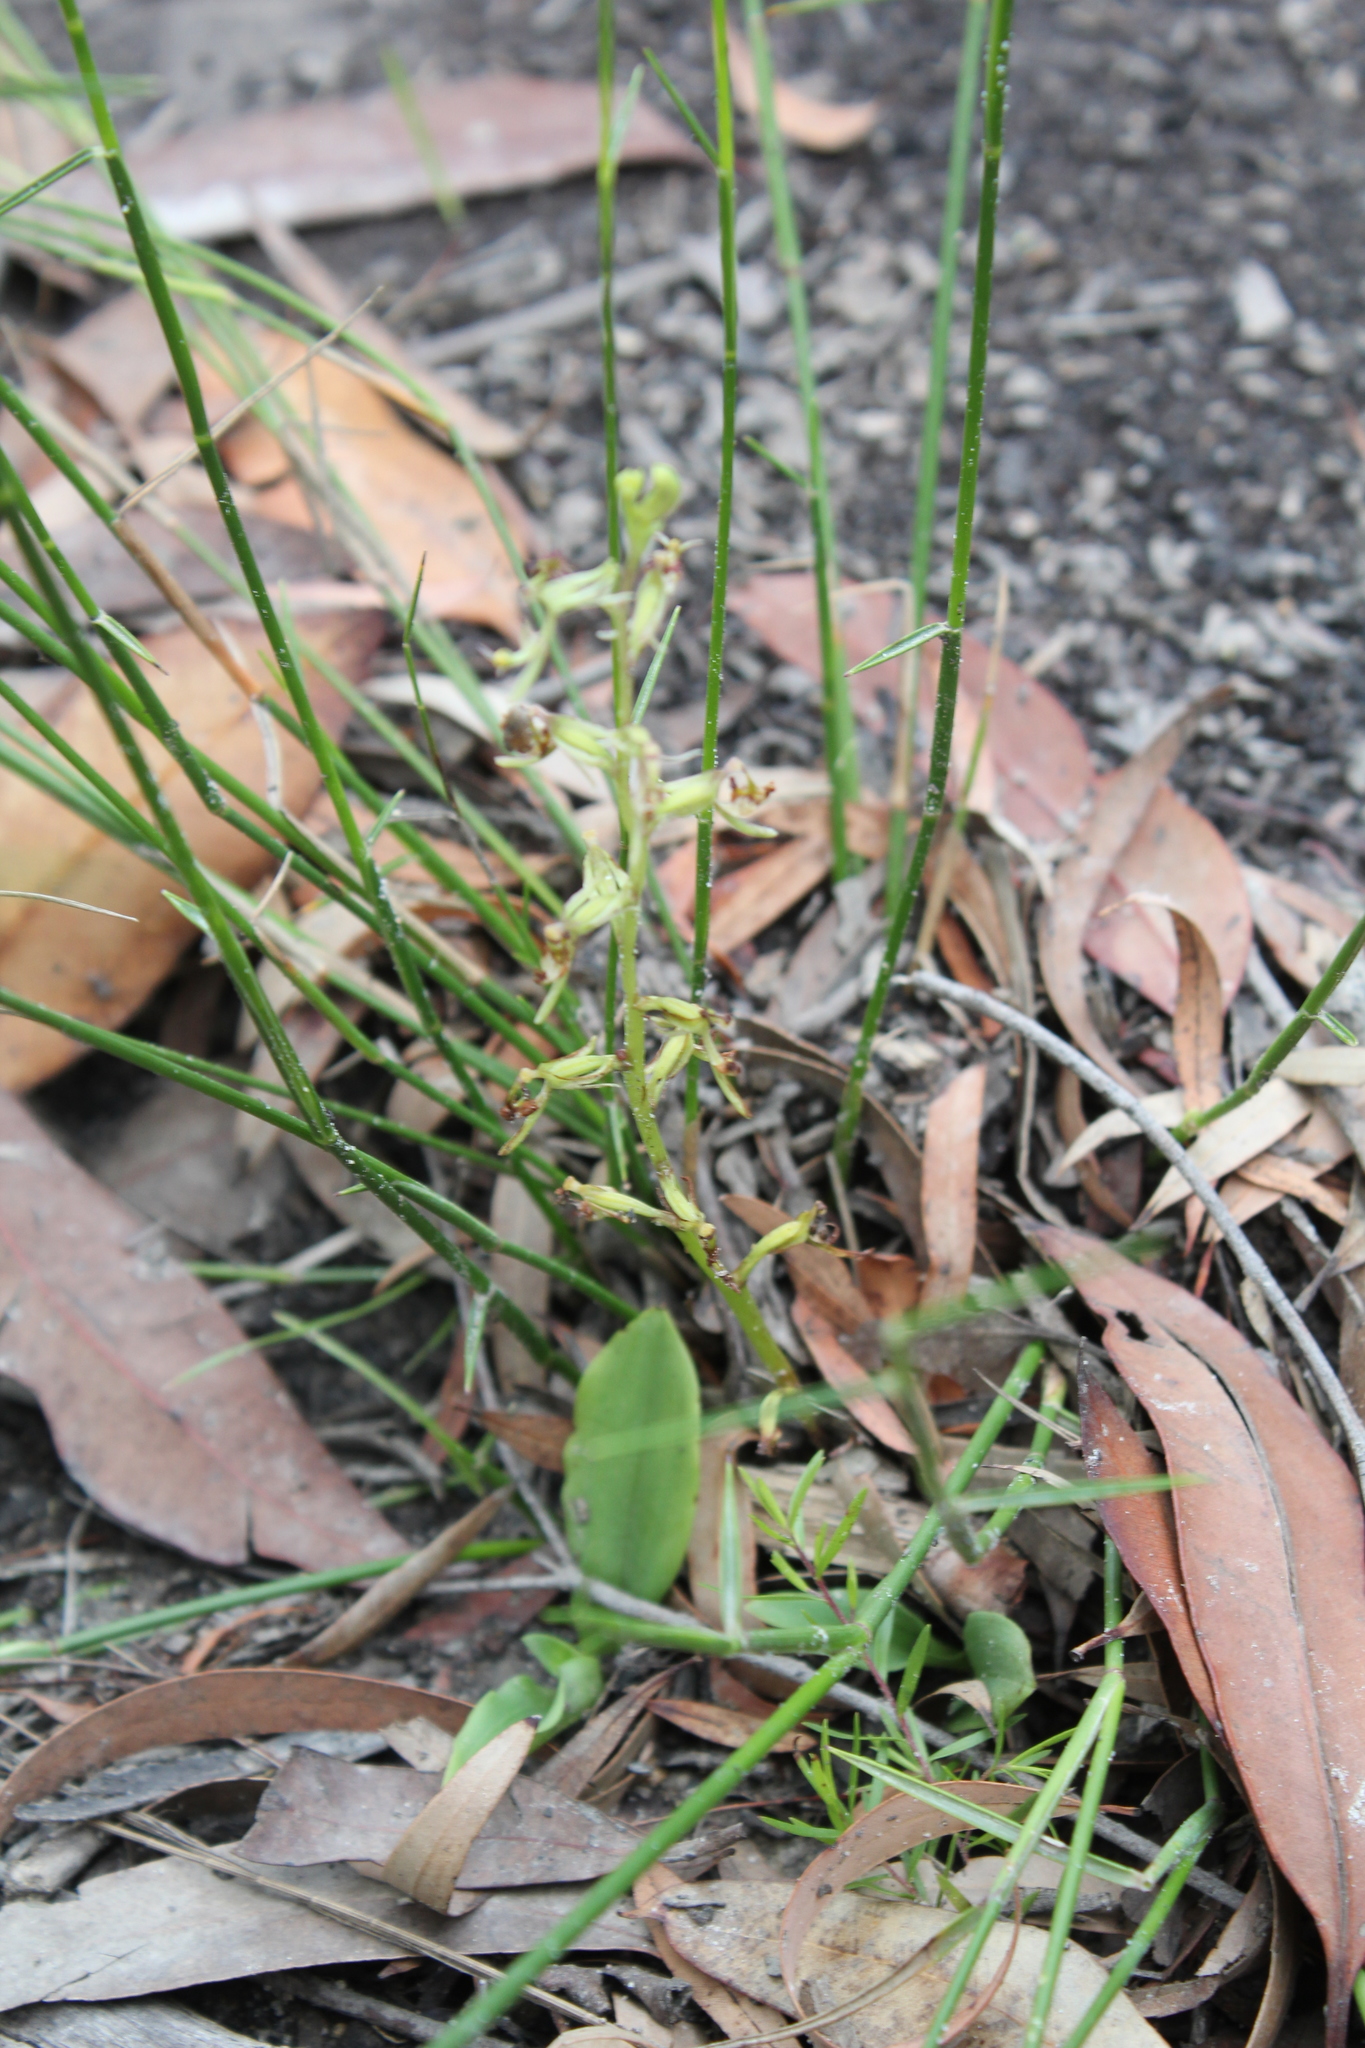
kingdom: Plantae
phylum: Tracheophyta
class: Liliopsida
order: Asparagales
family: Orchidaceae
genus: Arthrochilus
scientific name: Arthrochilus prolixus
